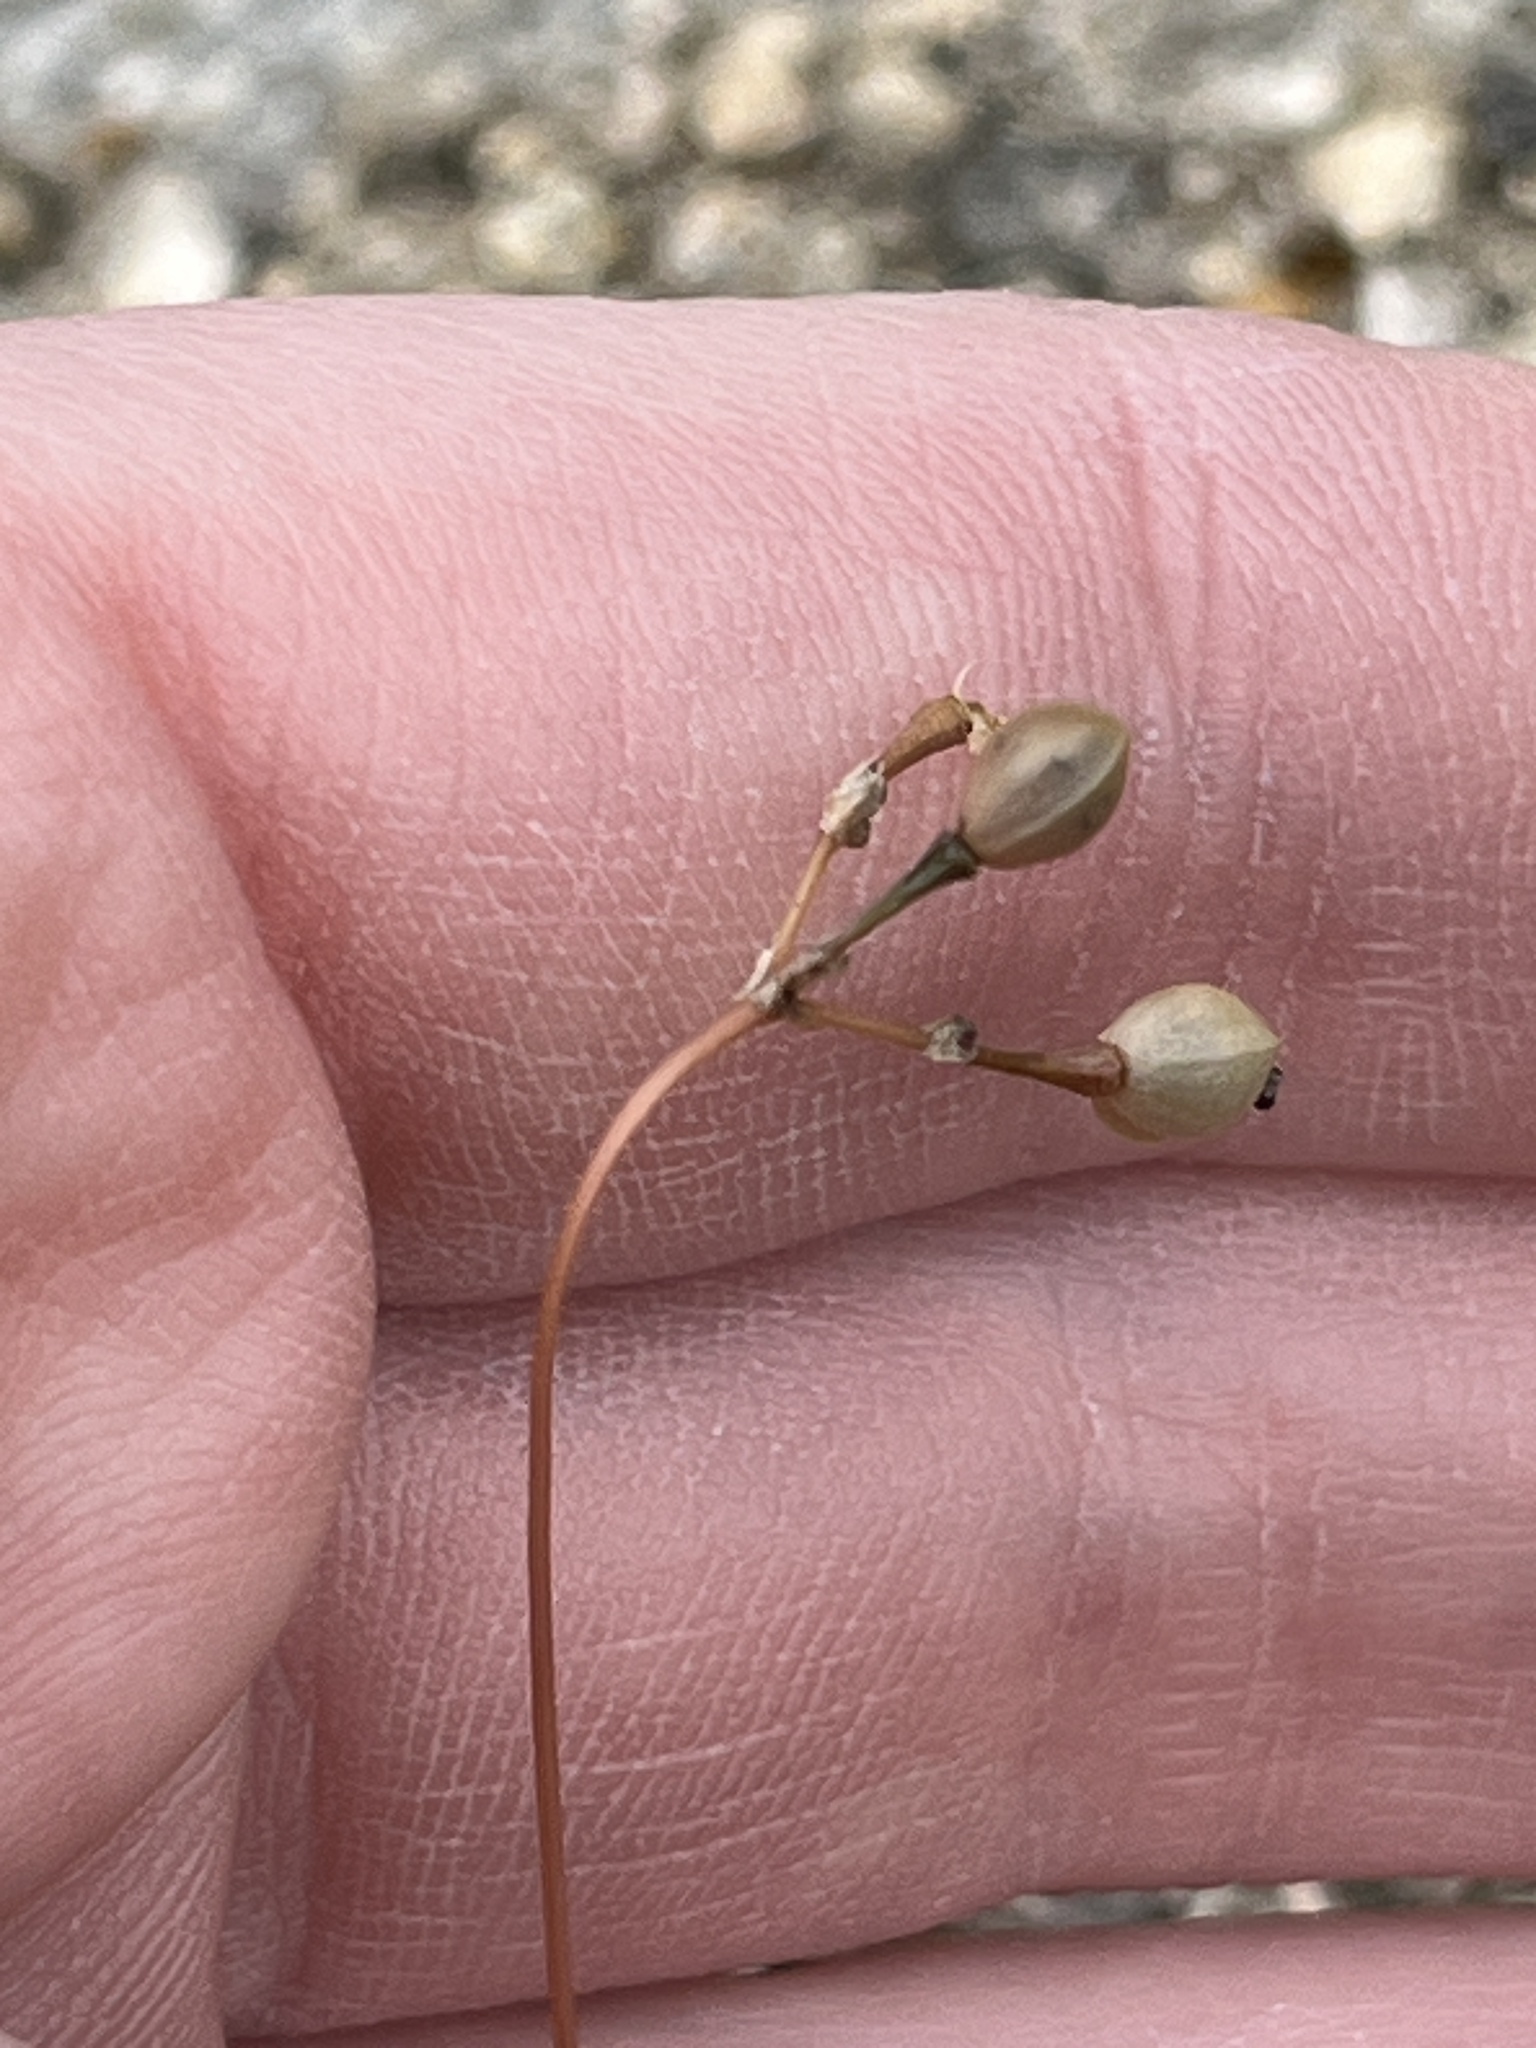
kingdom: Plantae
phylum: Tracheophyta
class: Magnoliopsida
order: Caryophyllales
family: Montiaceae
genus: Phemeranthus
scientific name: Phemeranthus teretifolius
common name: Quill fameflower
